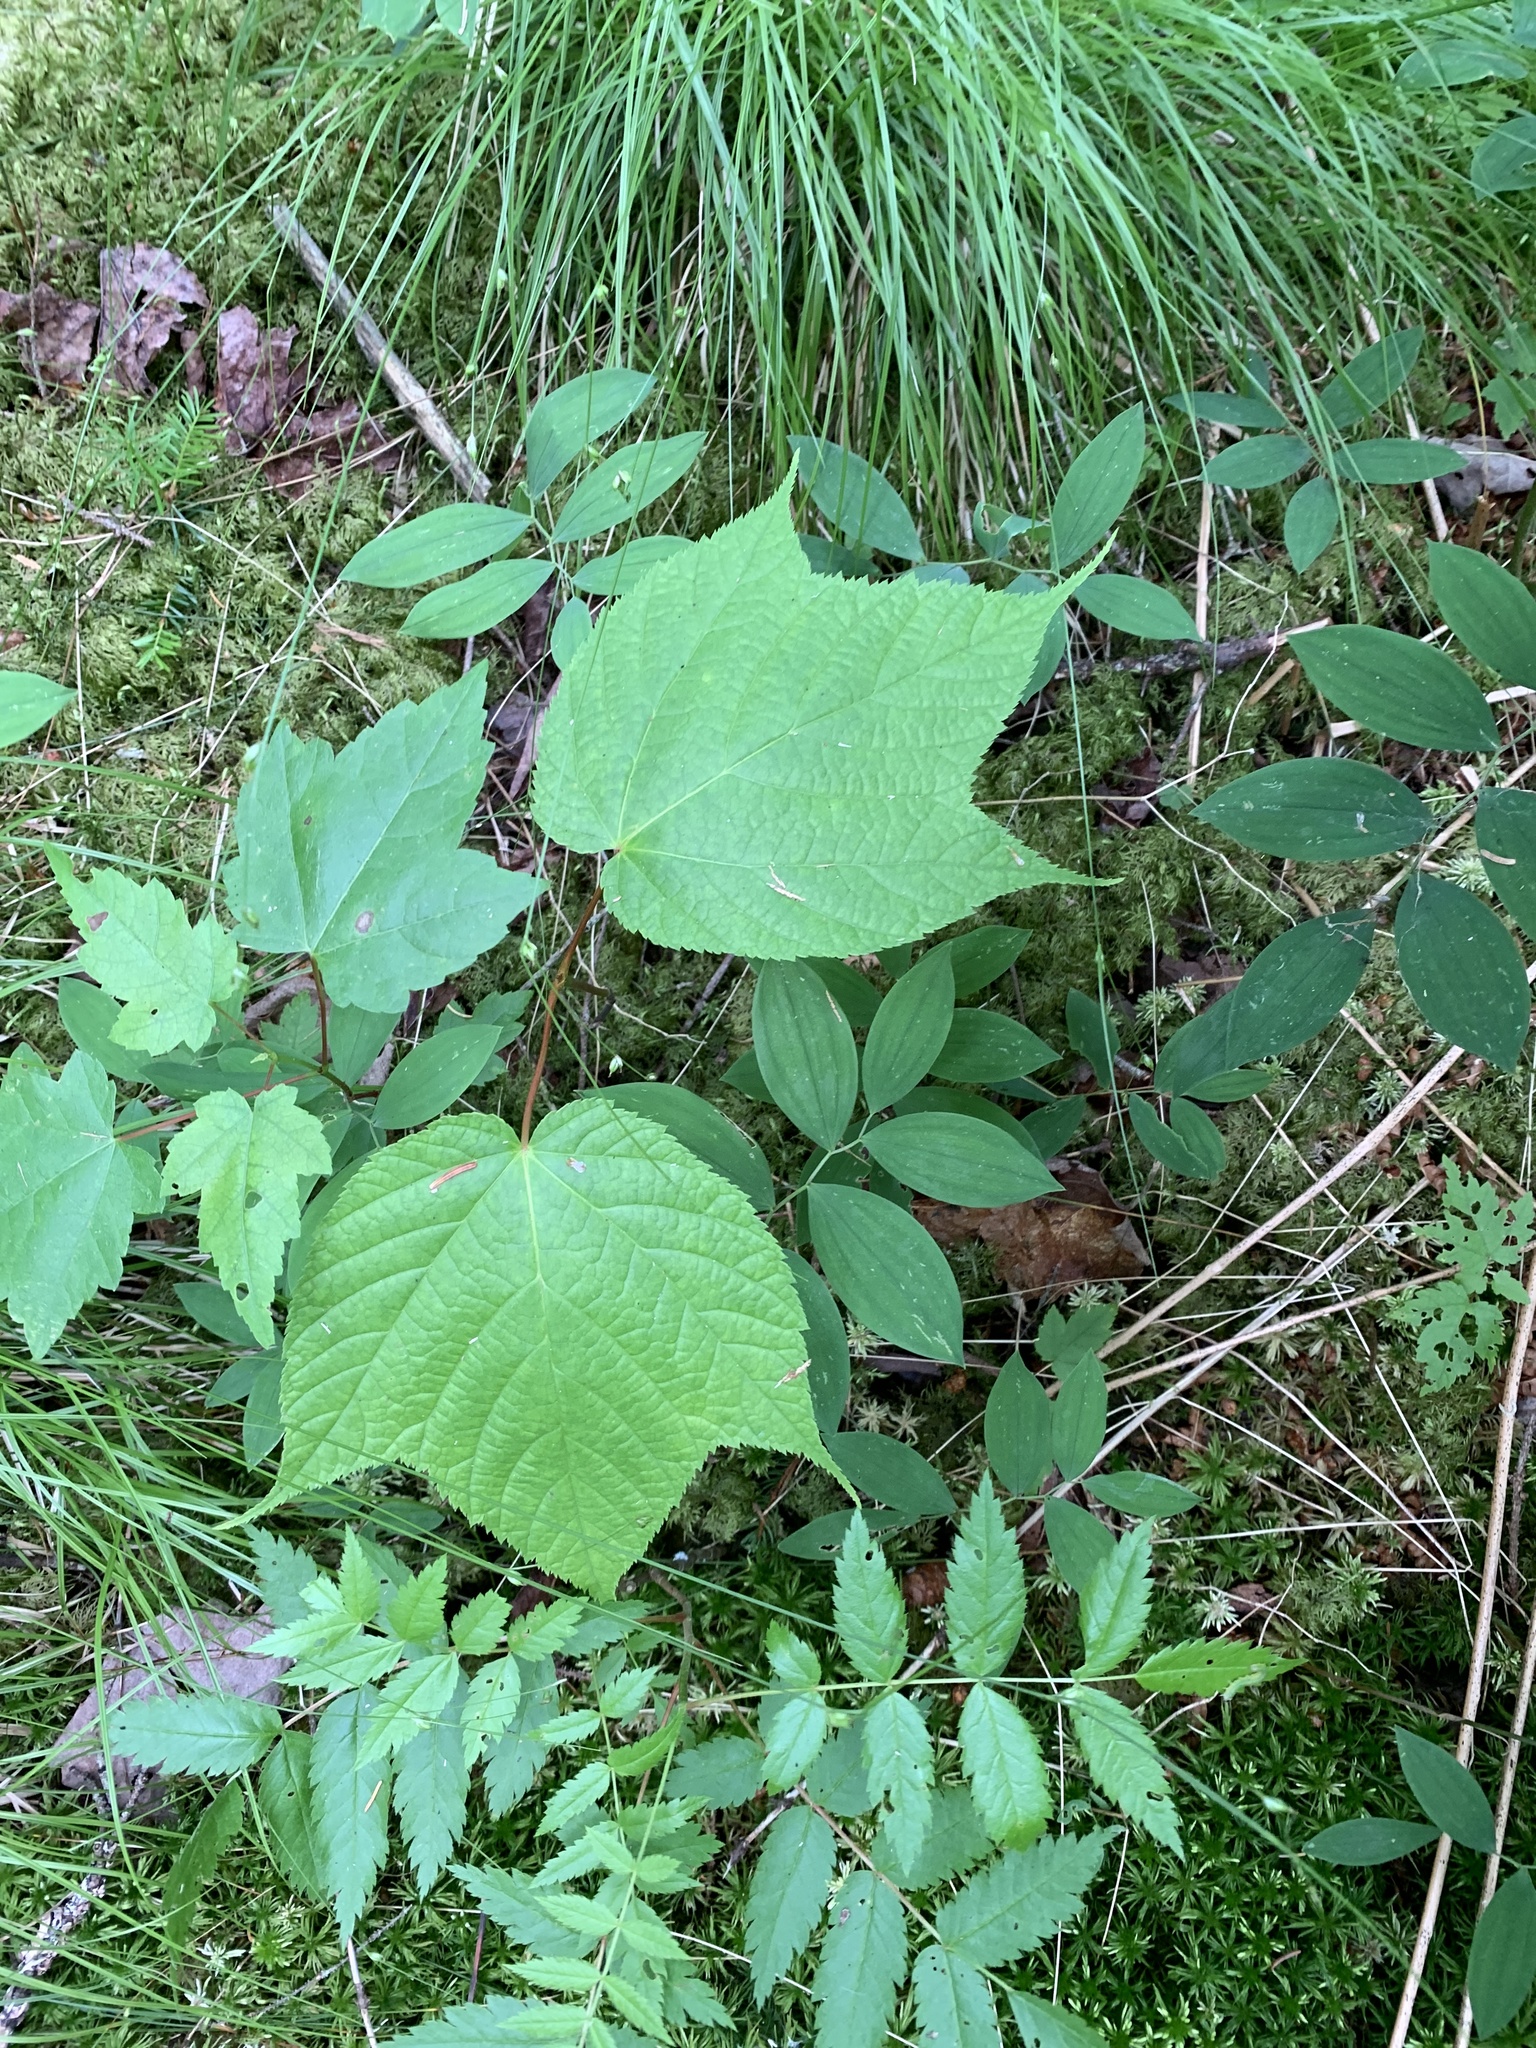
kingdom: Plantae
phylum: Tracheophyta
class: Magnoliopsida
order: Sapindales
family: Sapindaceae
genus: Acer
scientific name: Acer pensylvanicum
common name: Moosewood
